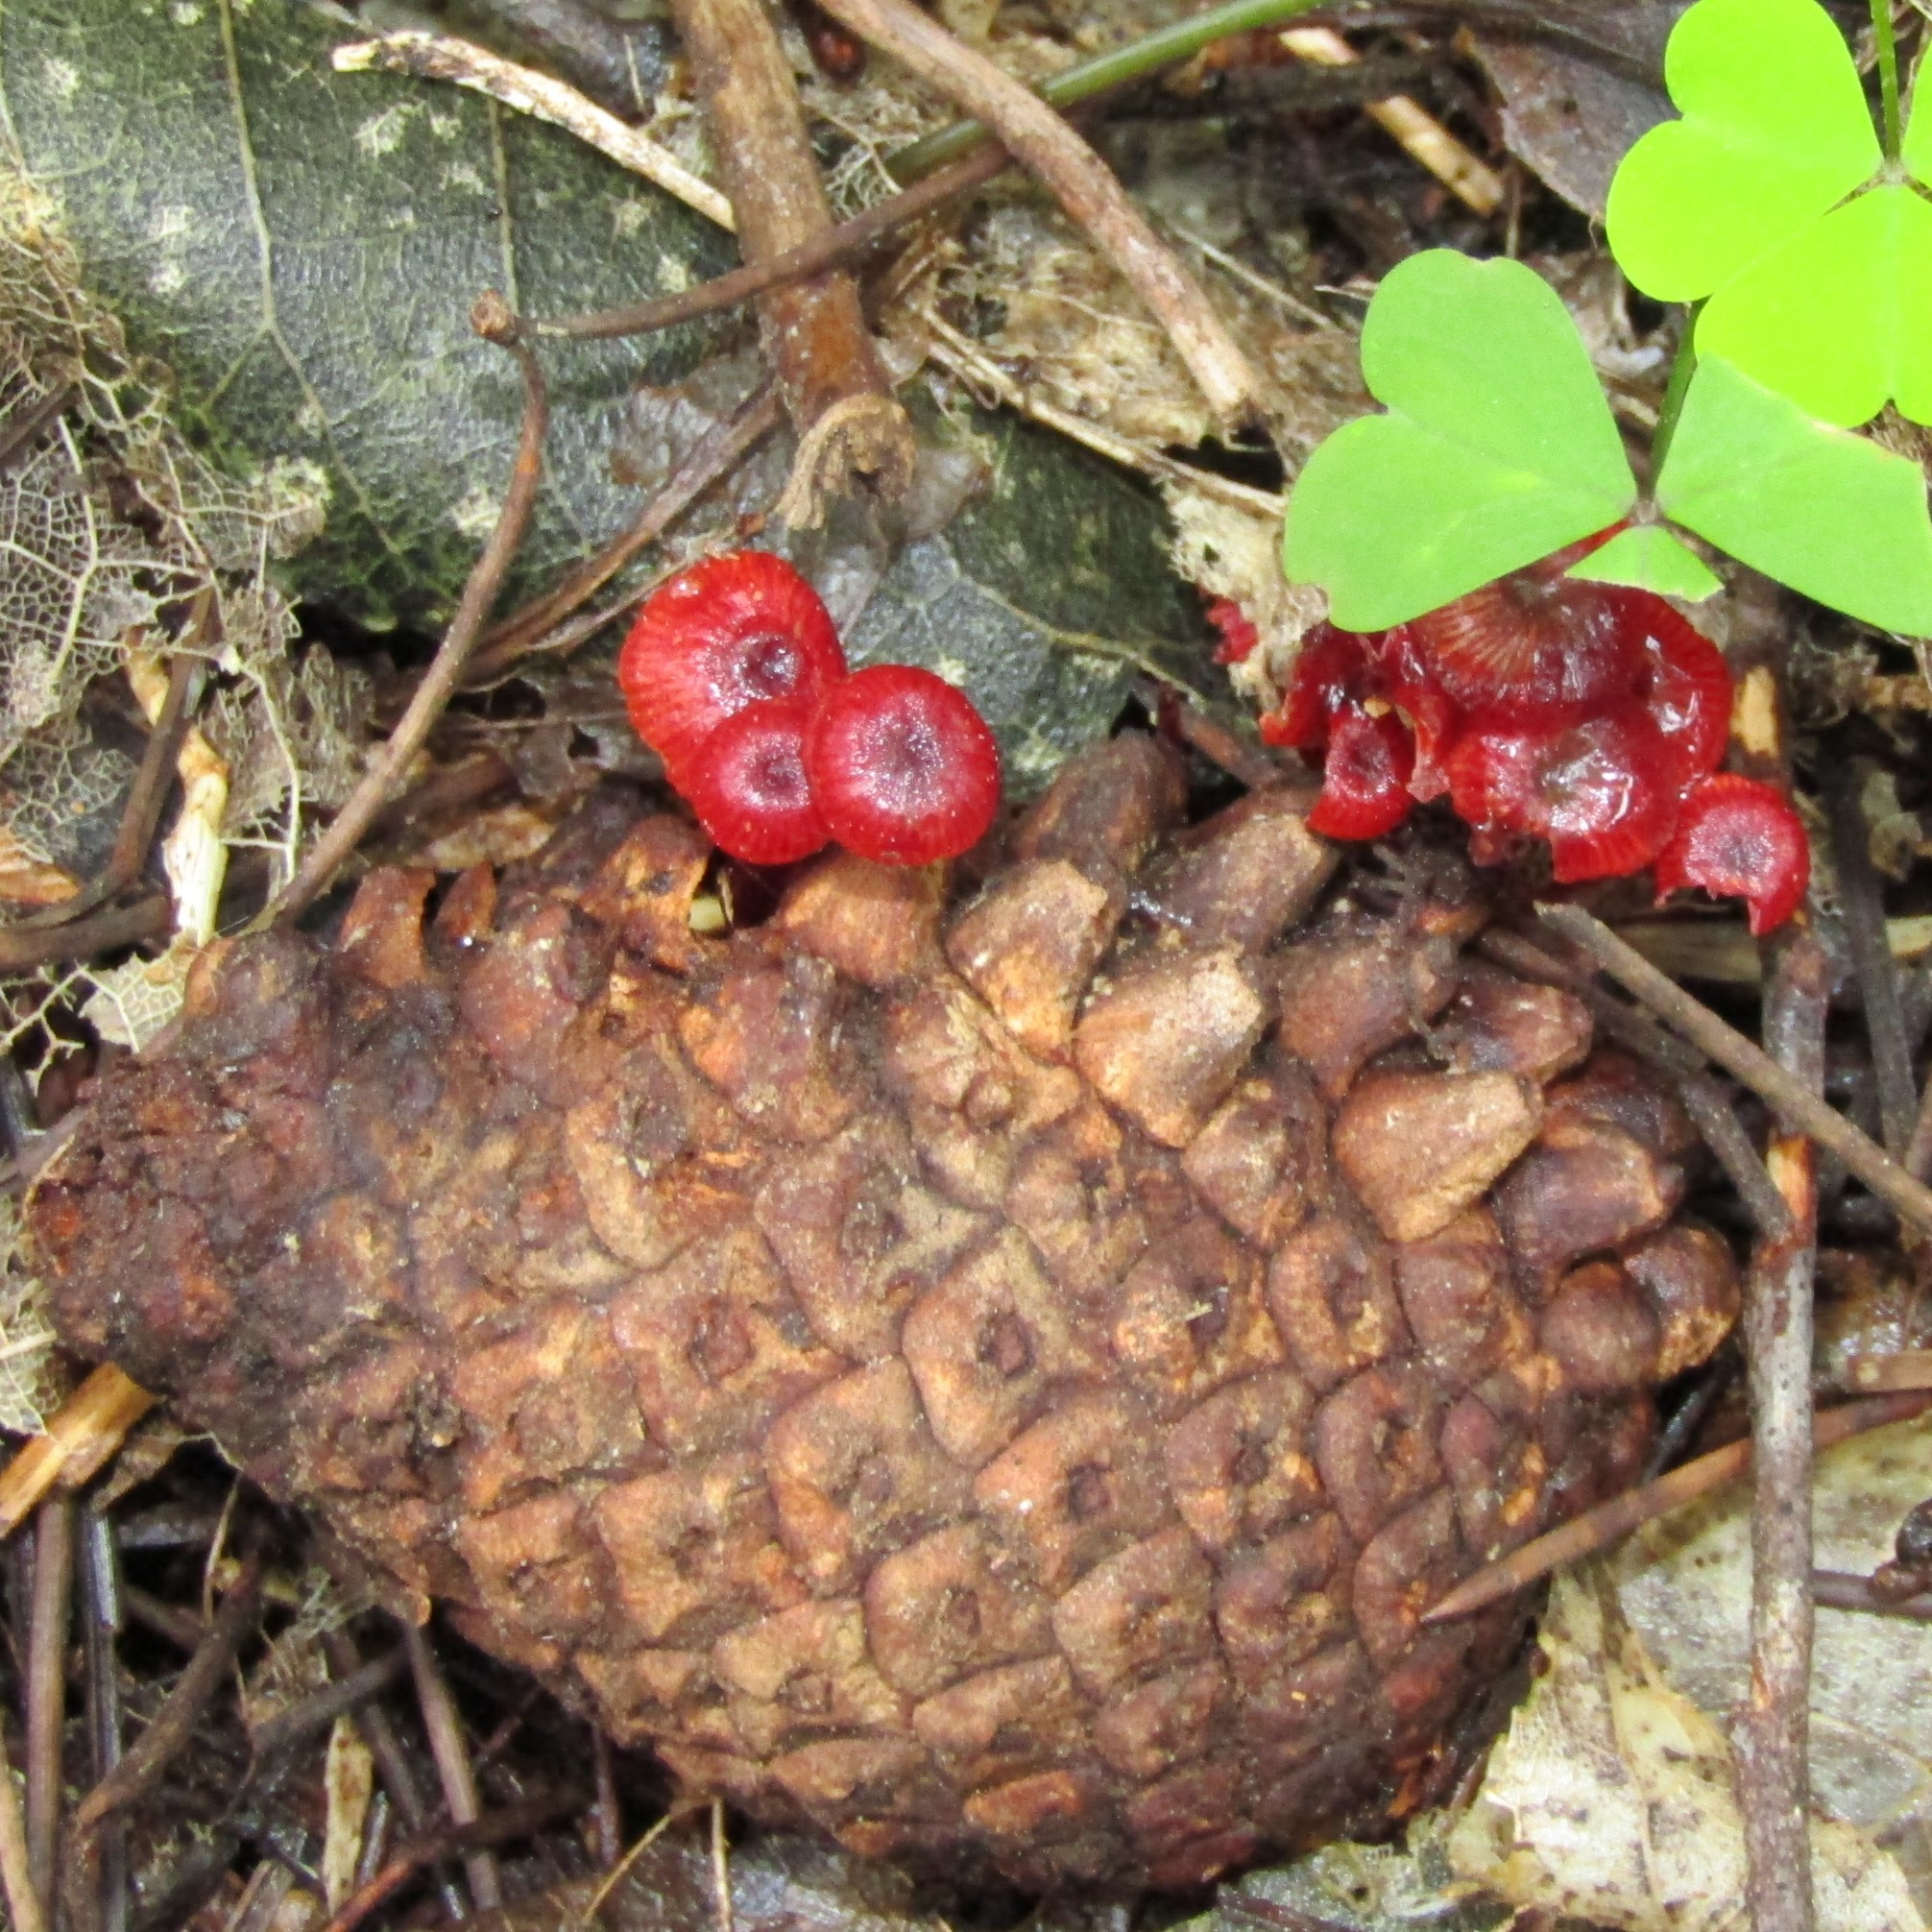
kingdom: Fungi
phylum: Basidiomycota
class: Agaricomycetes
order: Agaricales
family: Mycenaceae
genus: Cruentomycena
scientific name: Cruentomycena viscidocruenta
